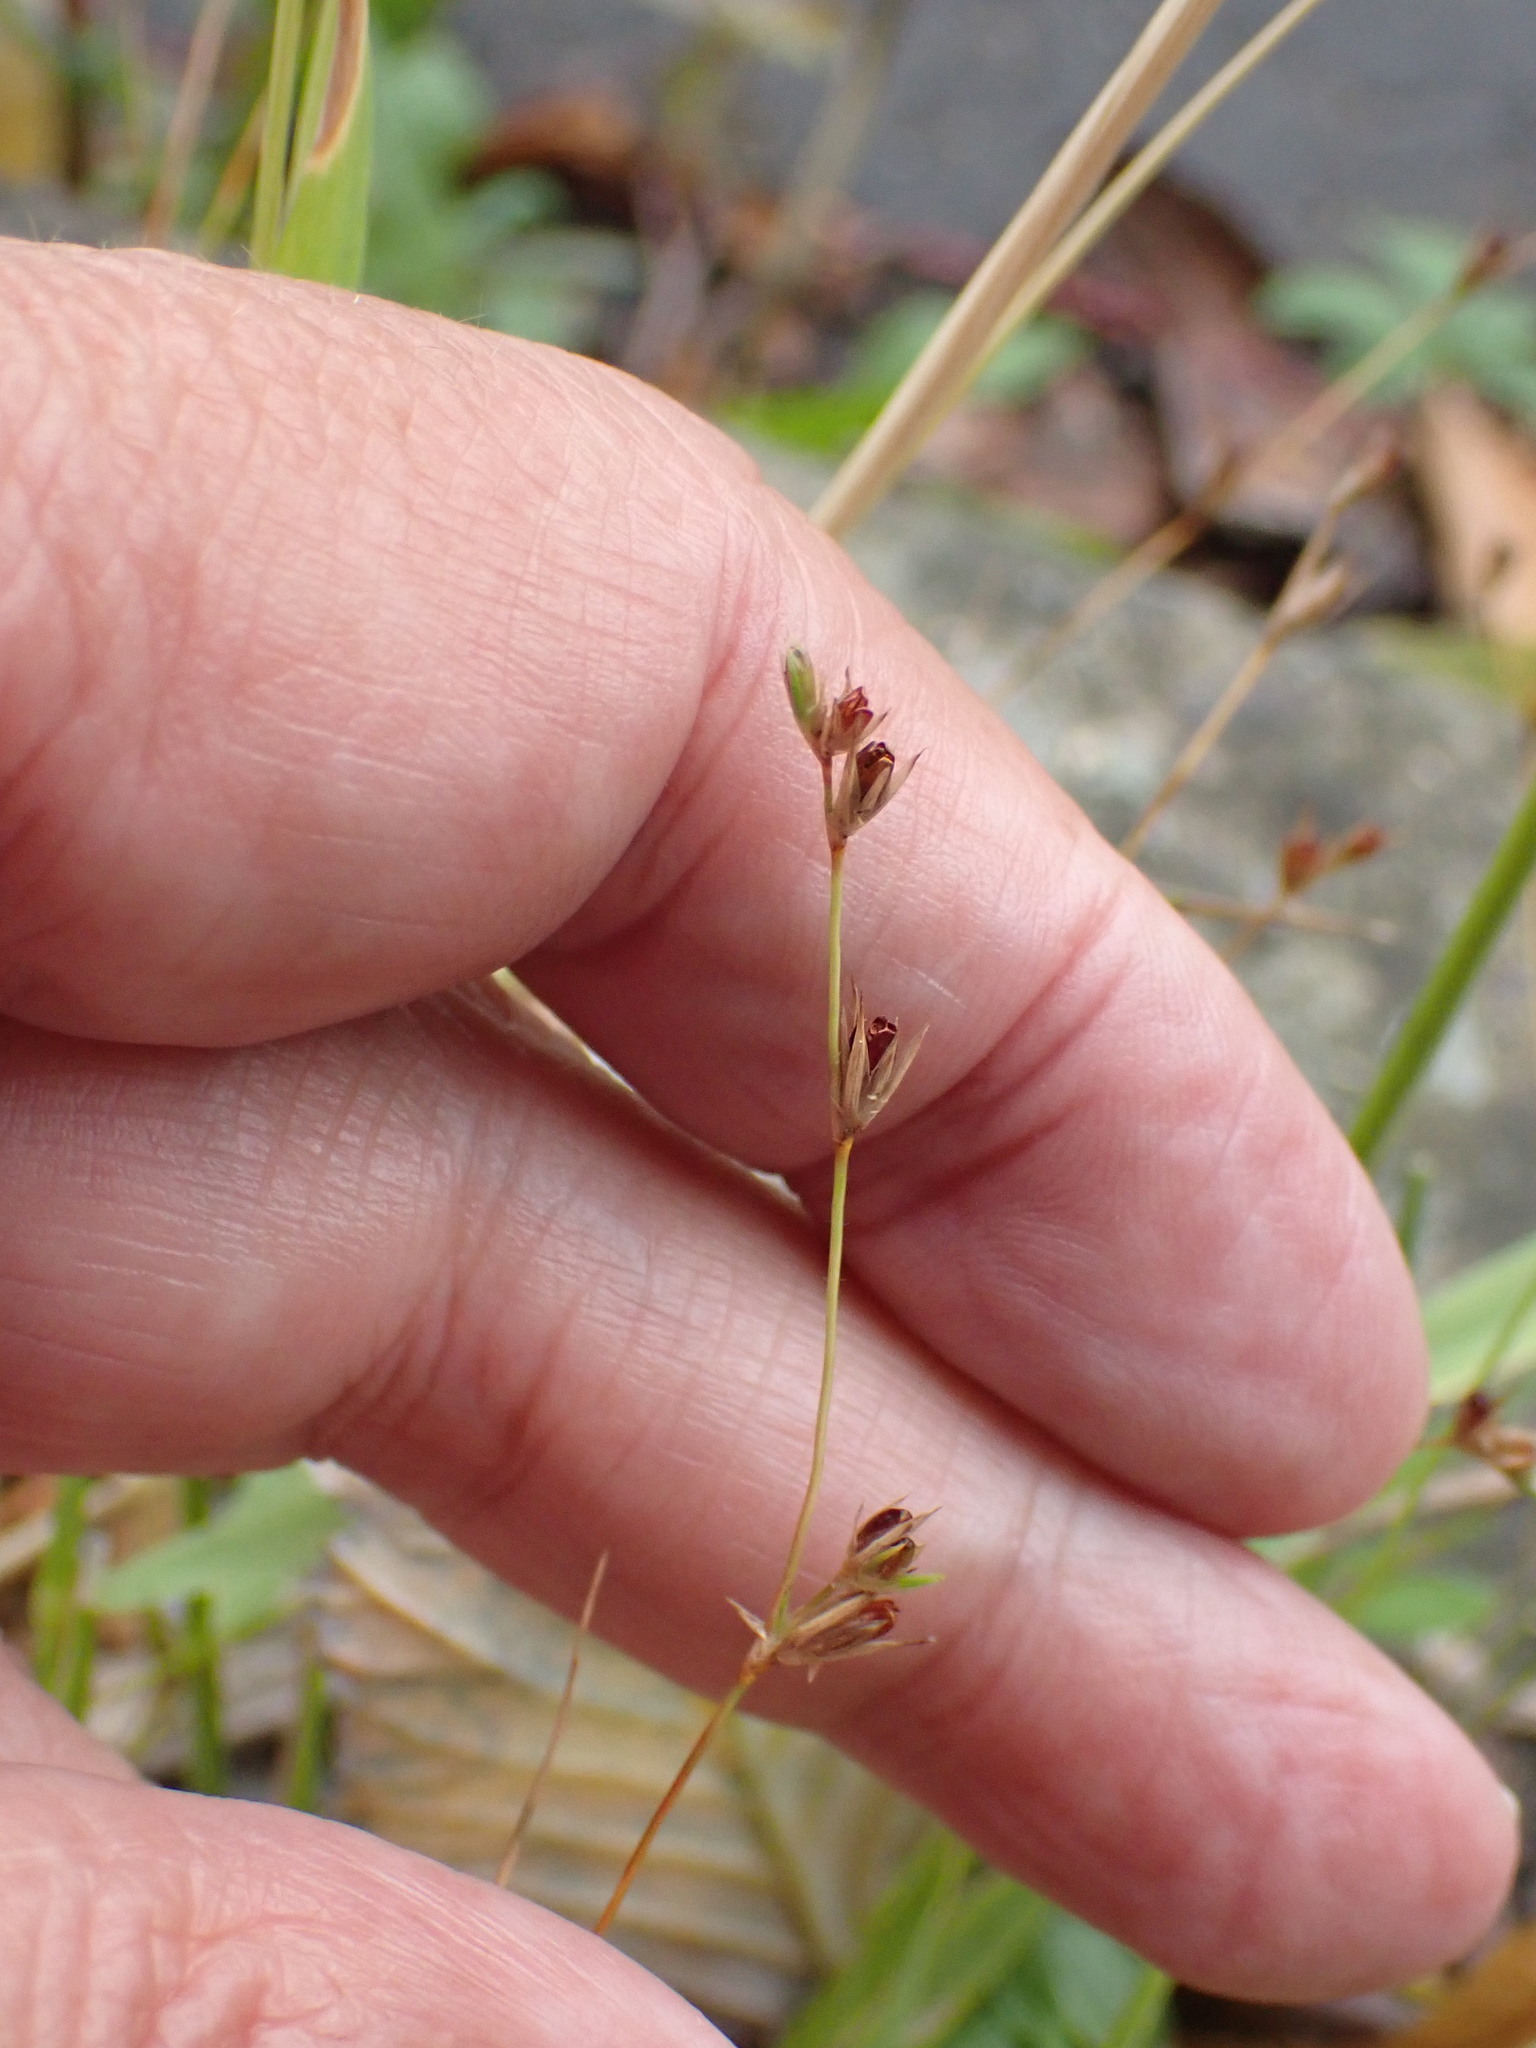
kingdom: Plantae
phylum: Tracheophyta
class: Liliopsida
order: Poales
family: Juncaceae
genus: Juncus
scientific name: Juncus bufonius
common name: Toad rush
